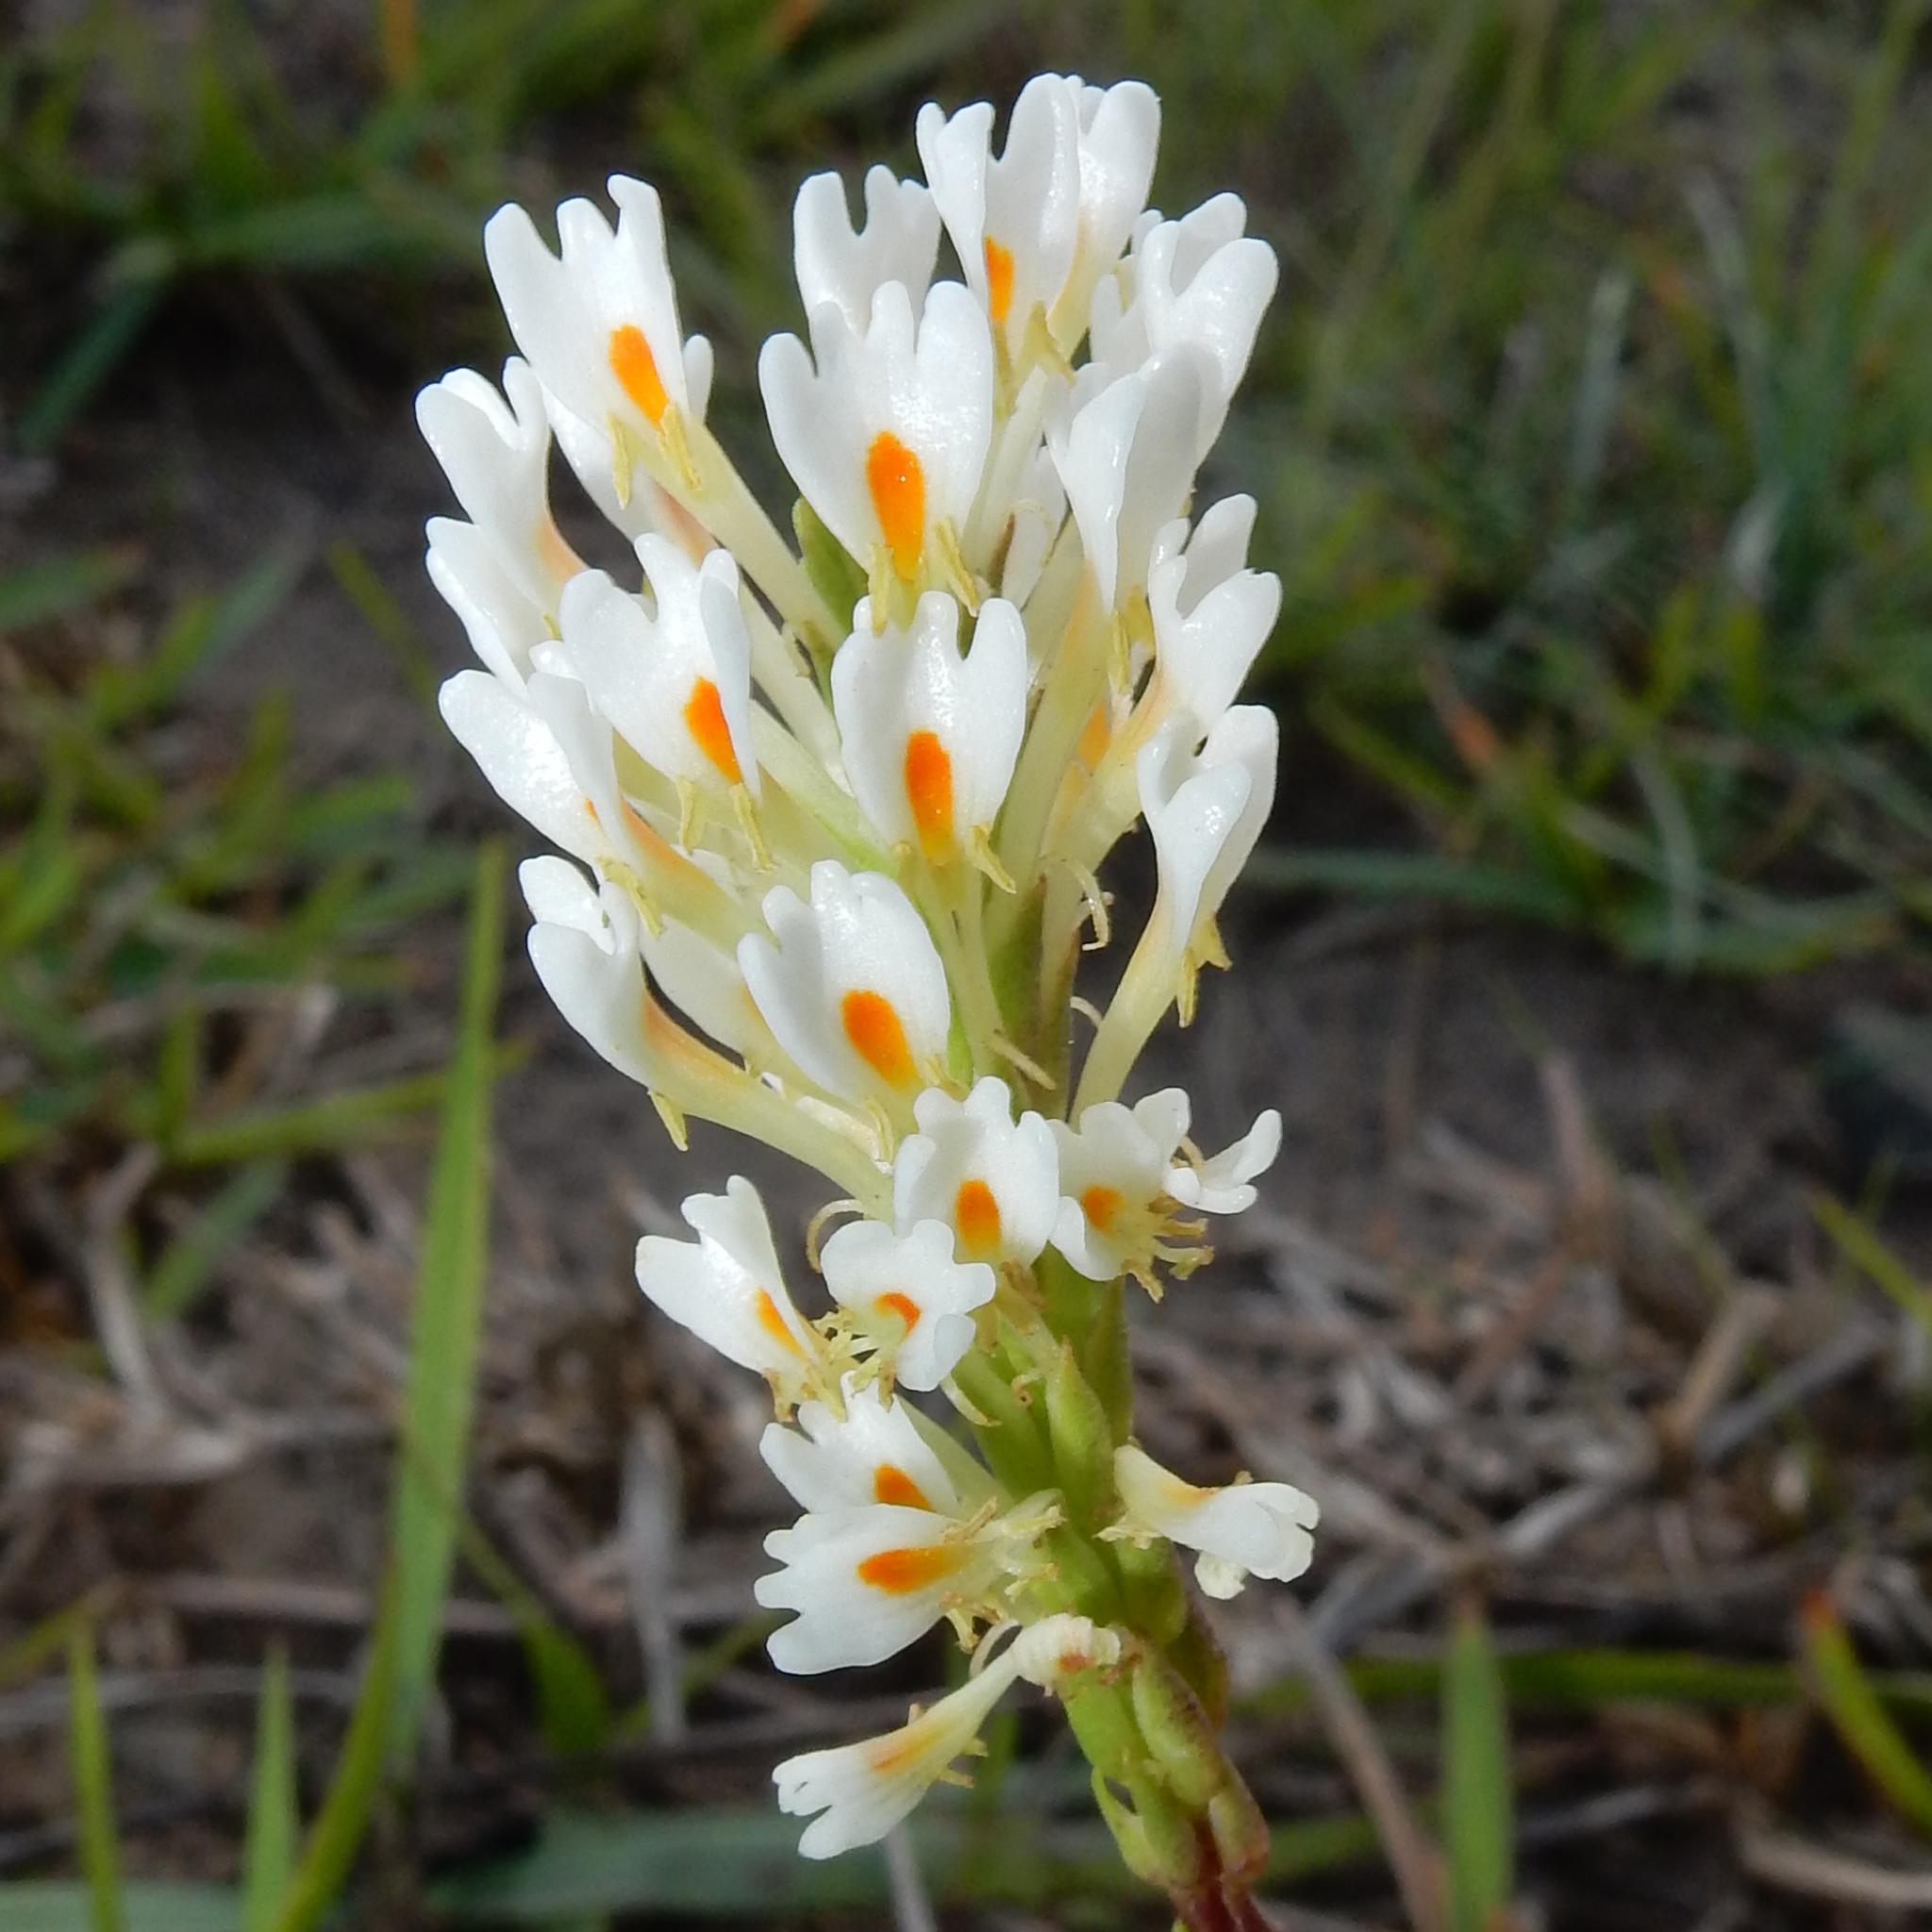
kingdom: Plantae
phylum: Tracheophyta
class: Magnoliopsida
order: Lamiales
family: Scrophulariaceae
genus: Hebenstretia
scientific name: Hebenstretia integrifolia
